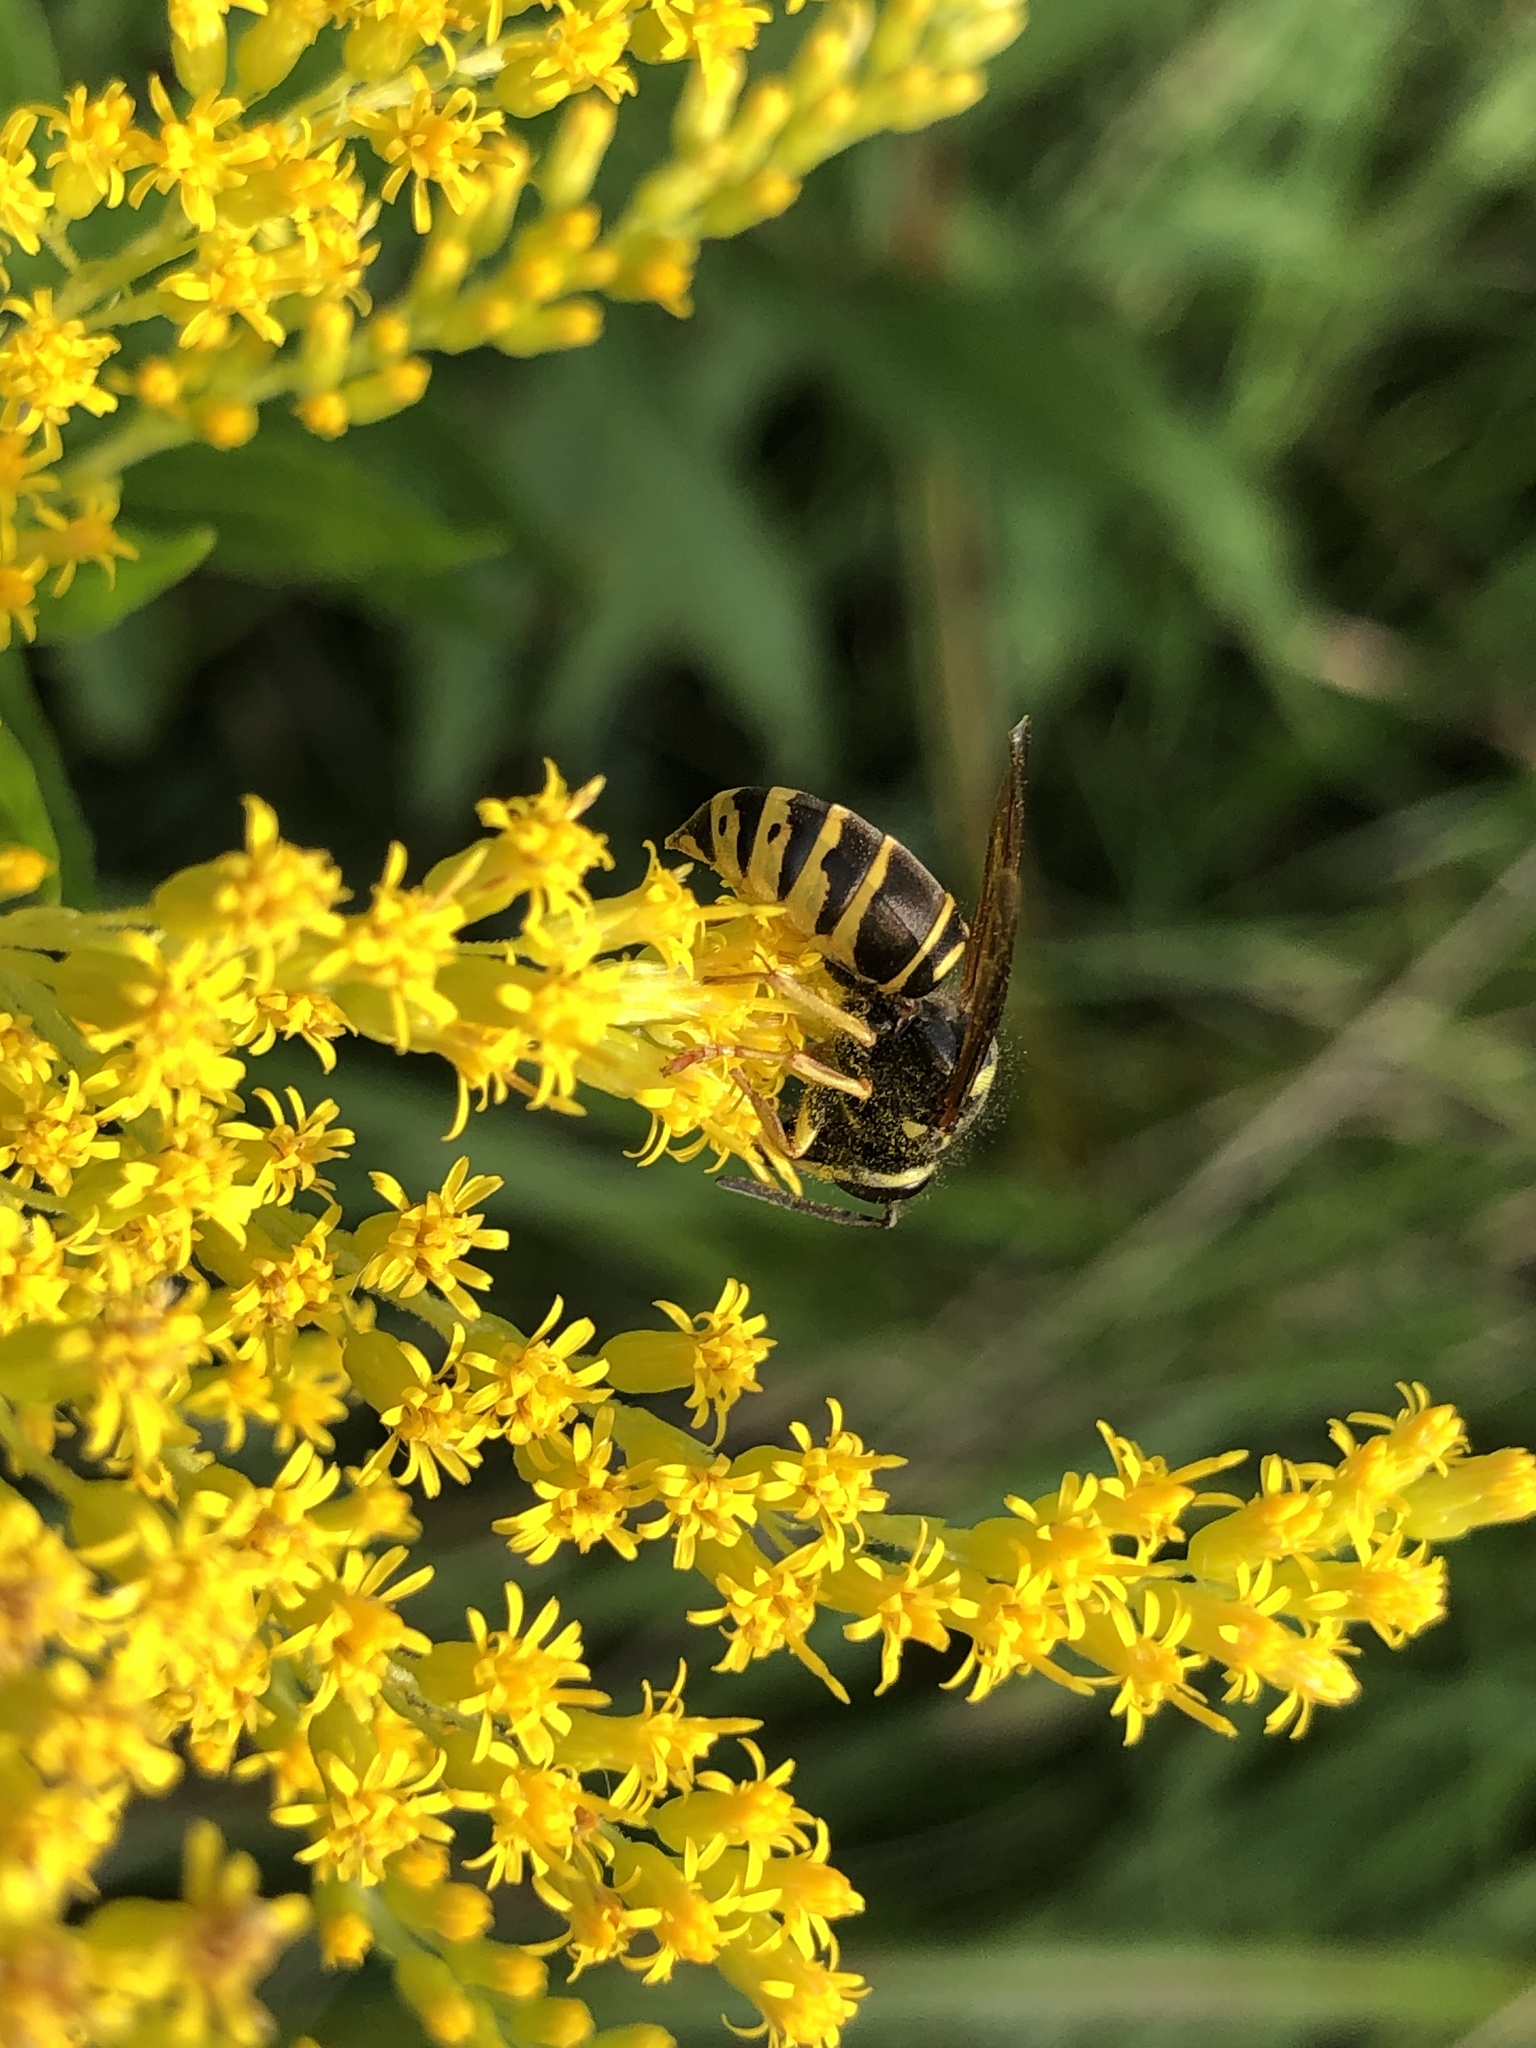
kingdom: Animalia
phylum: Arthropoda
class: Insecta
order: Hymenoptera
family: Vespidae
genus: Vespula
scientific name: Vespula vidua
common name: Widow yellowjacket
